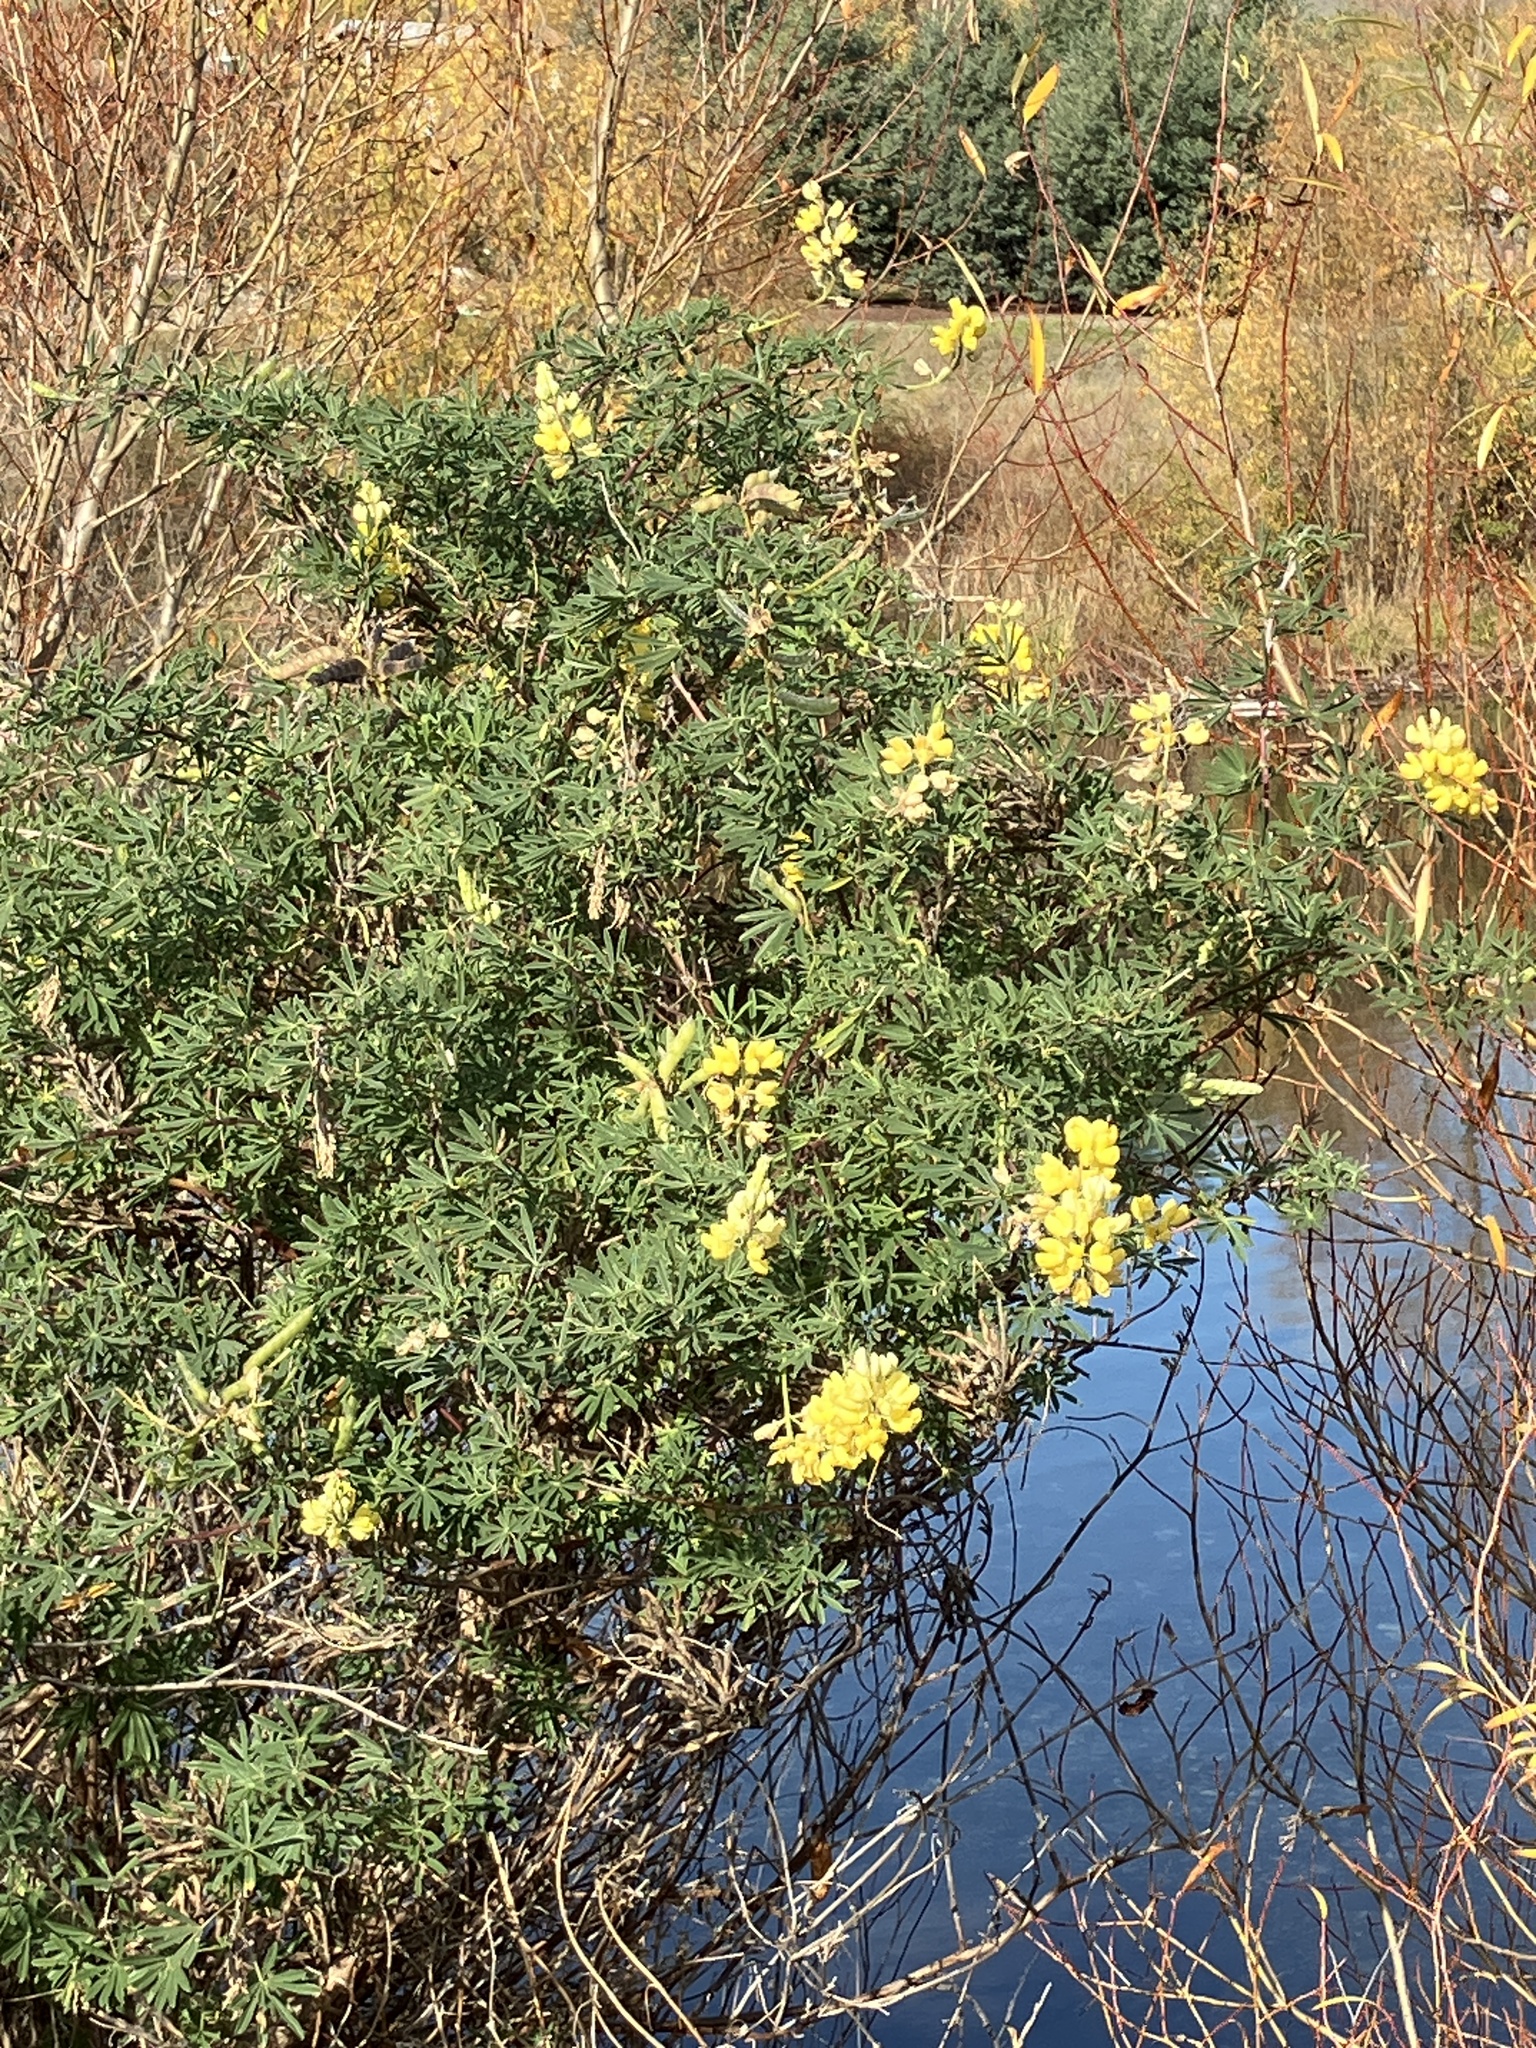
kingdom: Plantae
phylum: Tracheophyta
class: Magnoliopsida
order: Fabales
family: Fabaceae
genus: Lupinus
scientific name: Lupinus arboreus
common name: Yellow bush lupine
